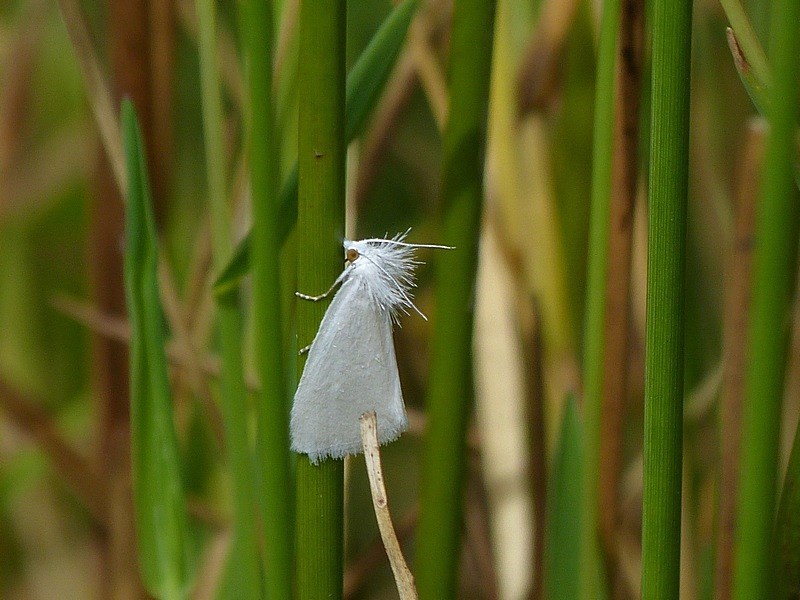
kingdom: Animalia
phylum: Arthropoda
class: Insecta
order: Lepidoptera
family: Crambidae
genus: Tipanaea
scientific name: Tipanaea patulella
